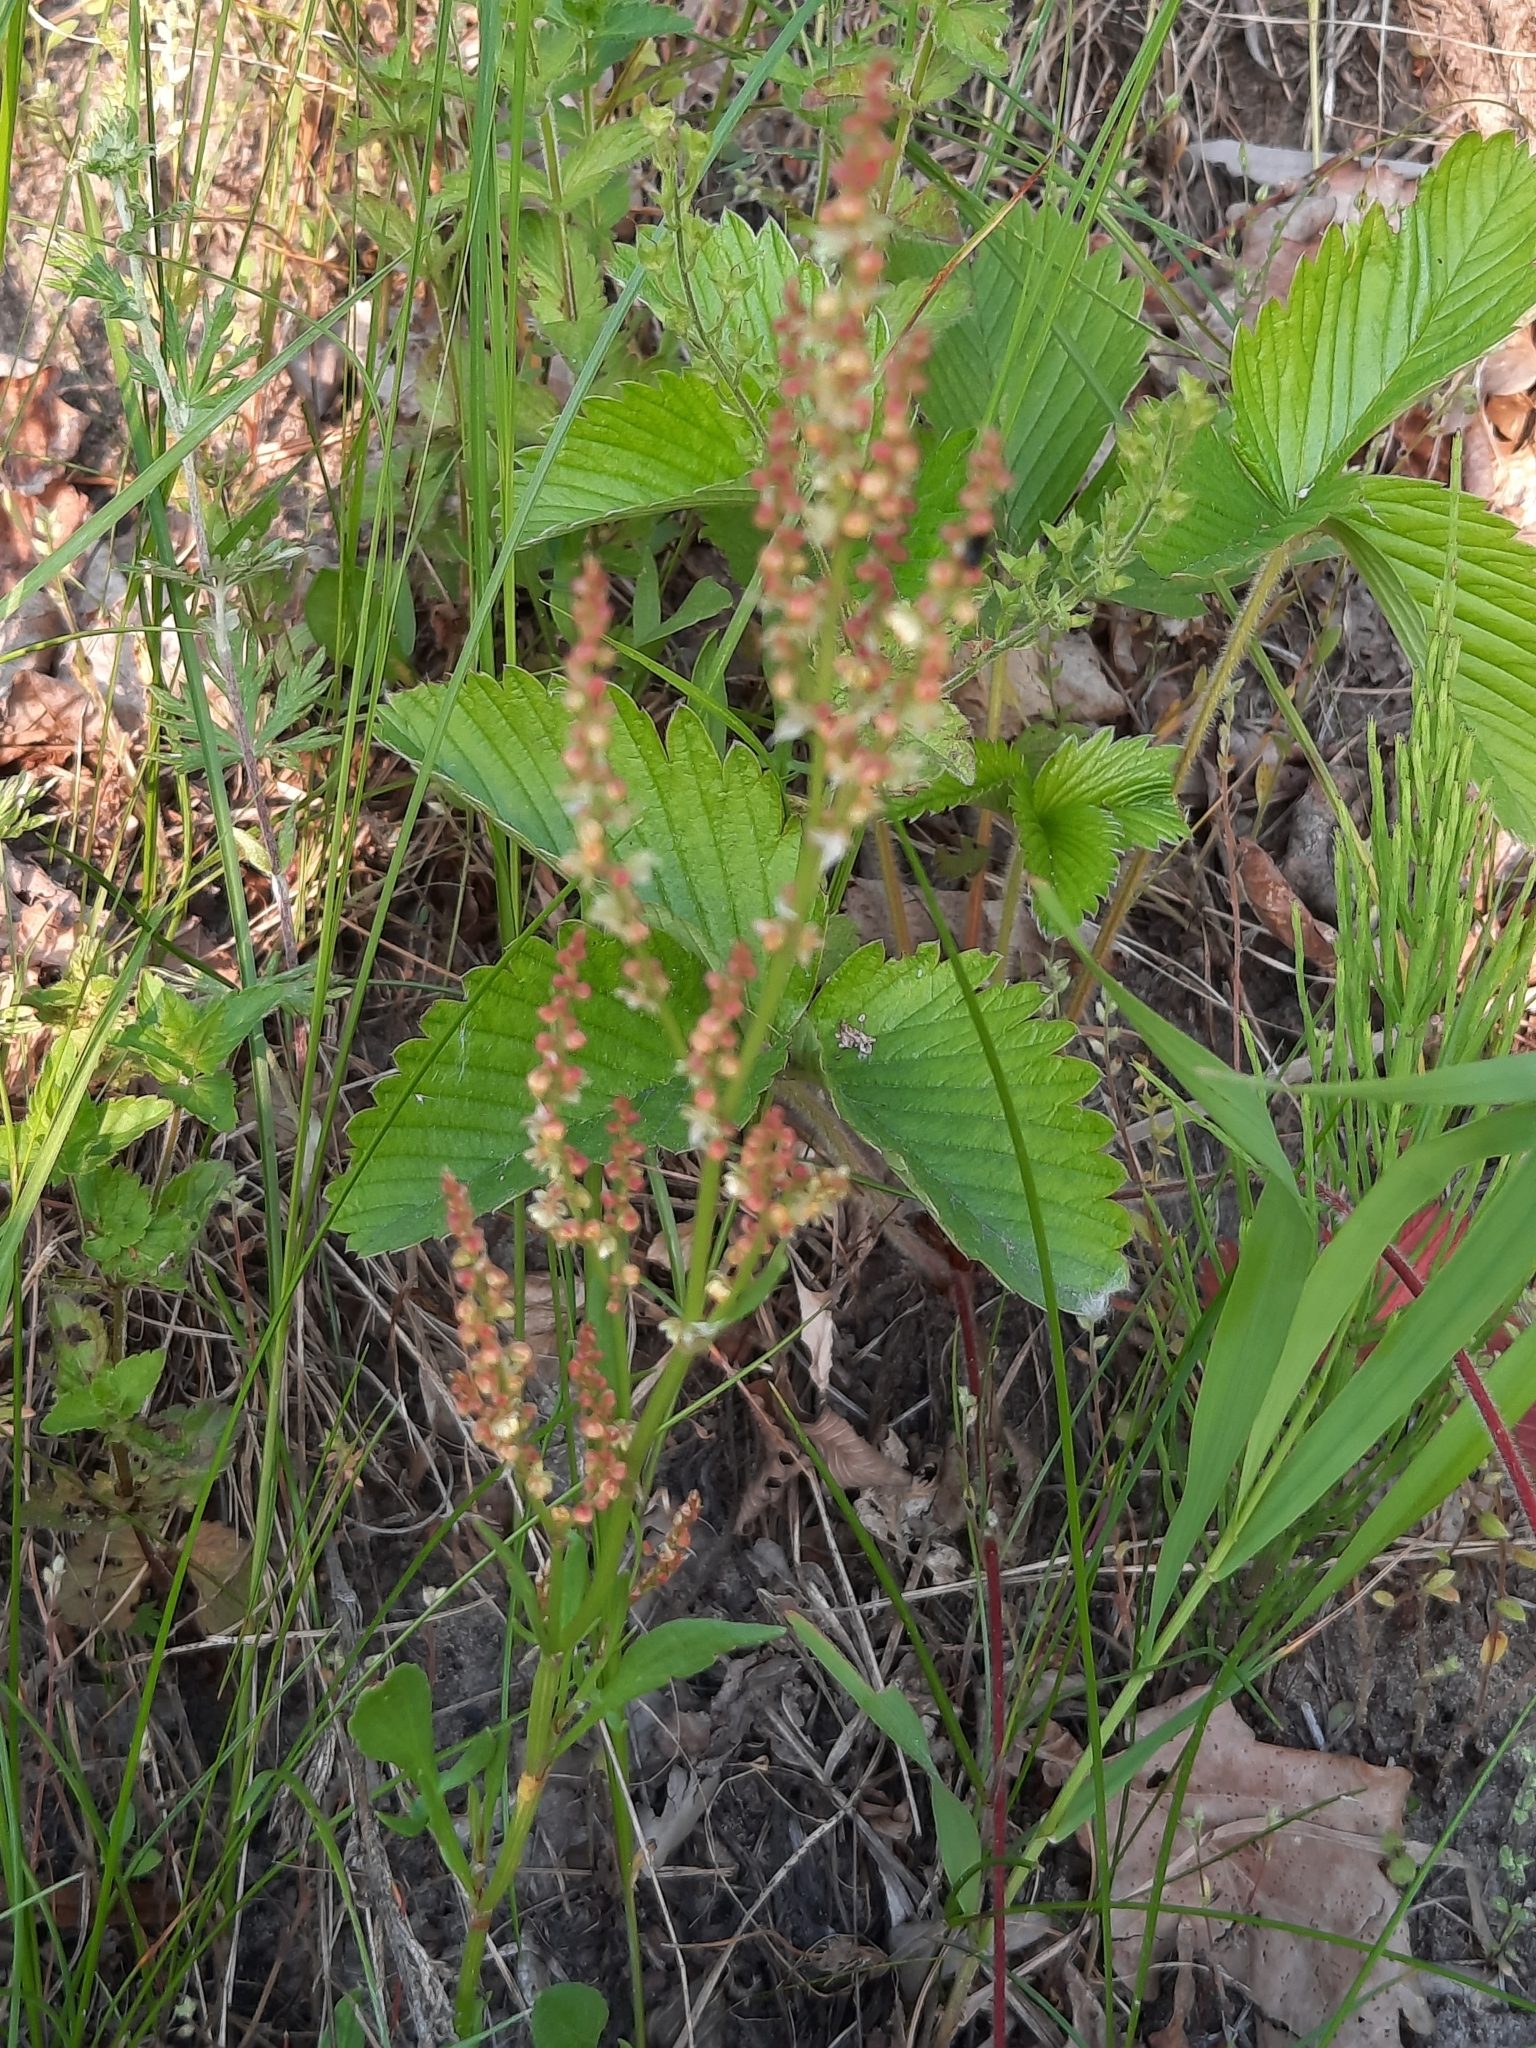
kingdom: Plantae
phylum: Tracheophyta
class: Magnoliopsida
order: Caryophyllales
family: Polygonaceae
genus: Rumex
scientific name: Rumex acetosa
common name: Garden sorrel
